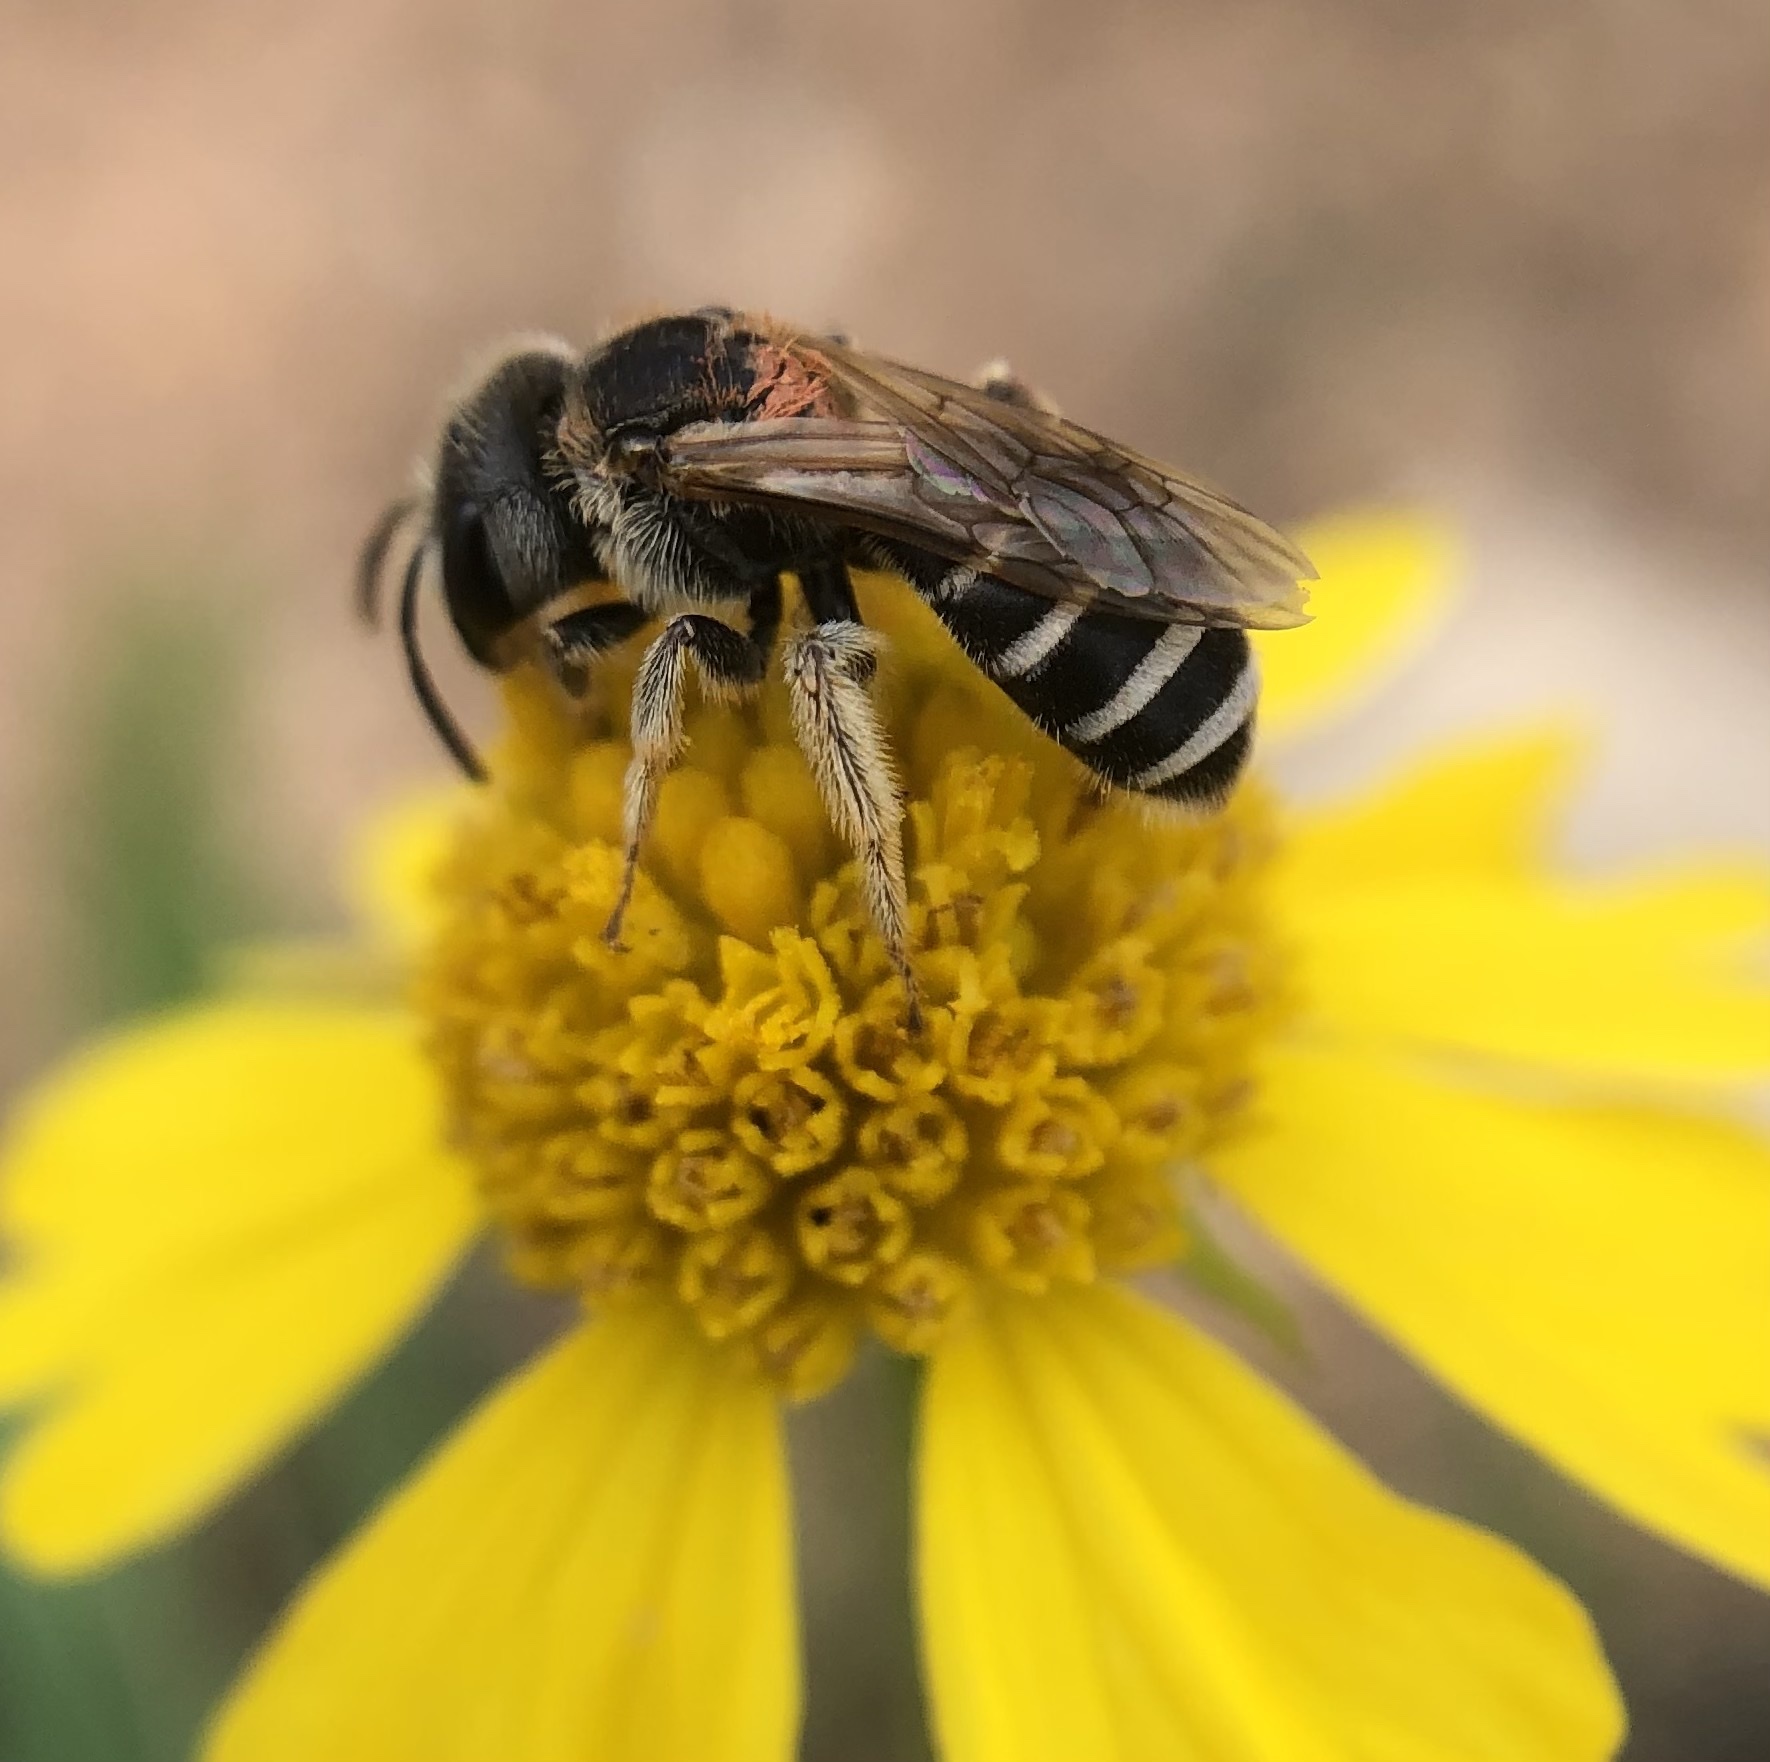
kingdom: Animalia
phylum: Arthropoda
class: Insecta
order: Hymenoptera
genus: Odontalictus
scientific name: Odontalictus
